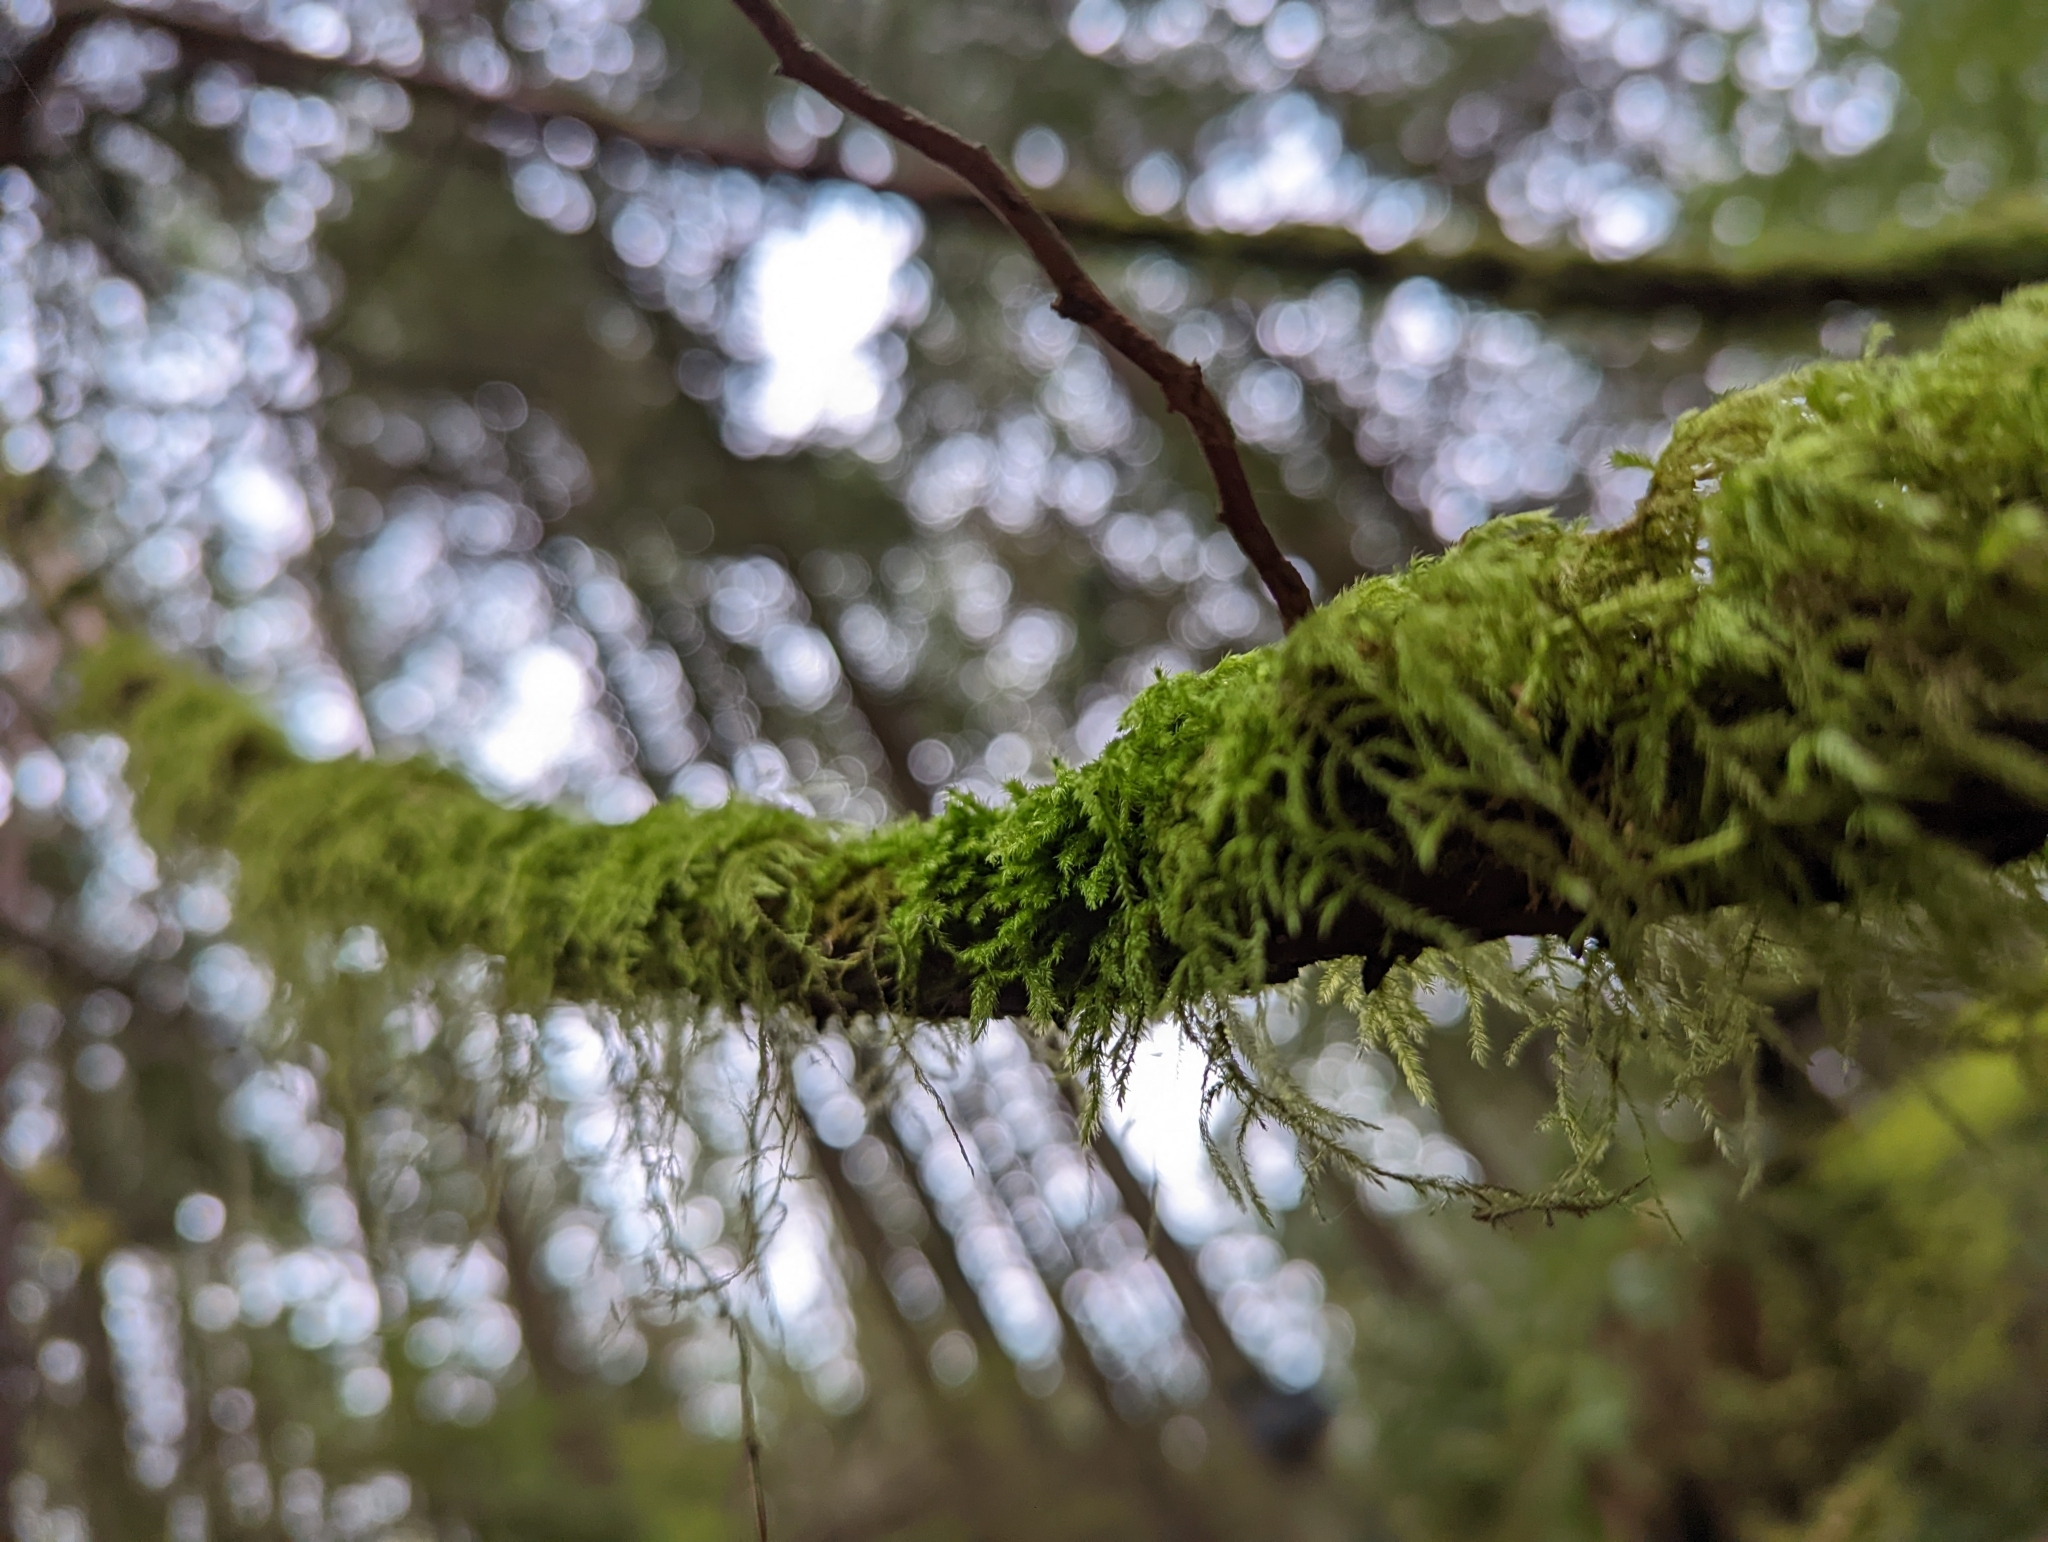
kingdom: Plantae
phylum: Bryophyta
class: Bryopsida
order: Hypnales
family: Lembophyllaceae
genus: Pseudisothecium
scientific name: Pseudisothecium stoloniferum
